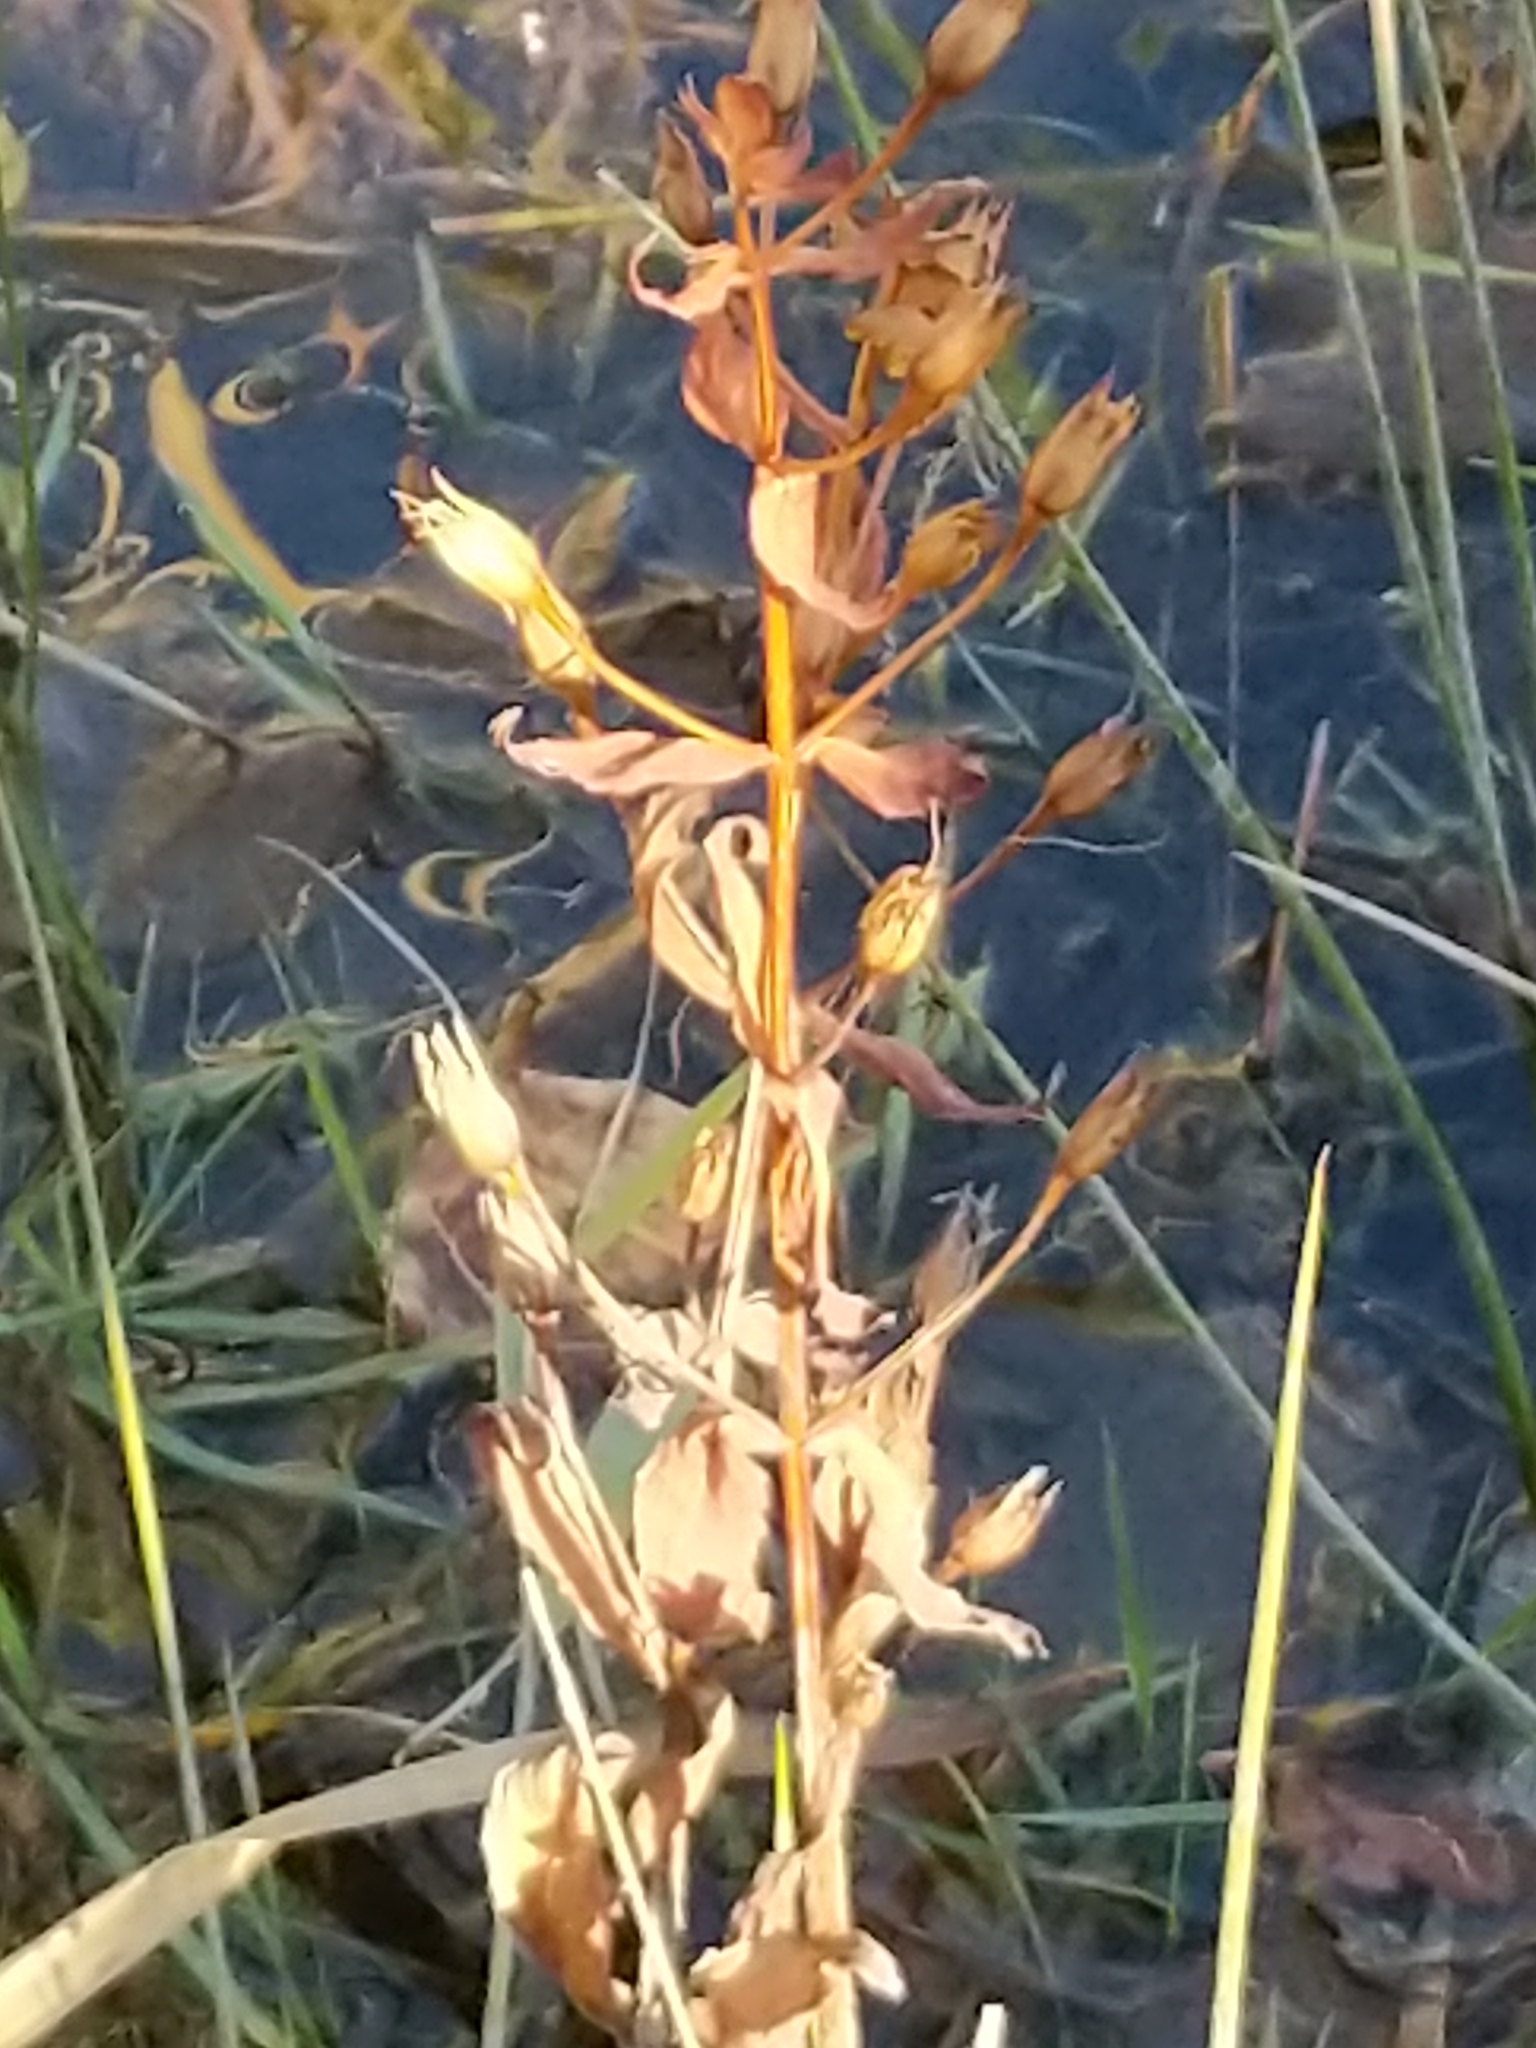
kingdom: Plantae
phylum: Tracheophyta
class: Magnoliopsida
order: Lamiales
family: Phrymaceae
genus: Mimulus
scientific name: Mimulus ringens
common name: Allegheny monkeyflower
